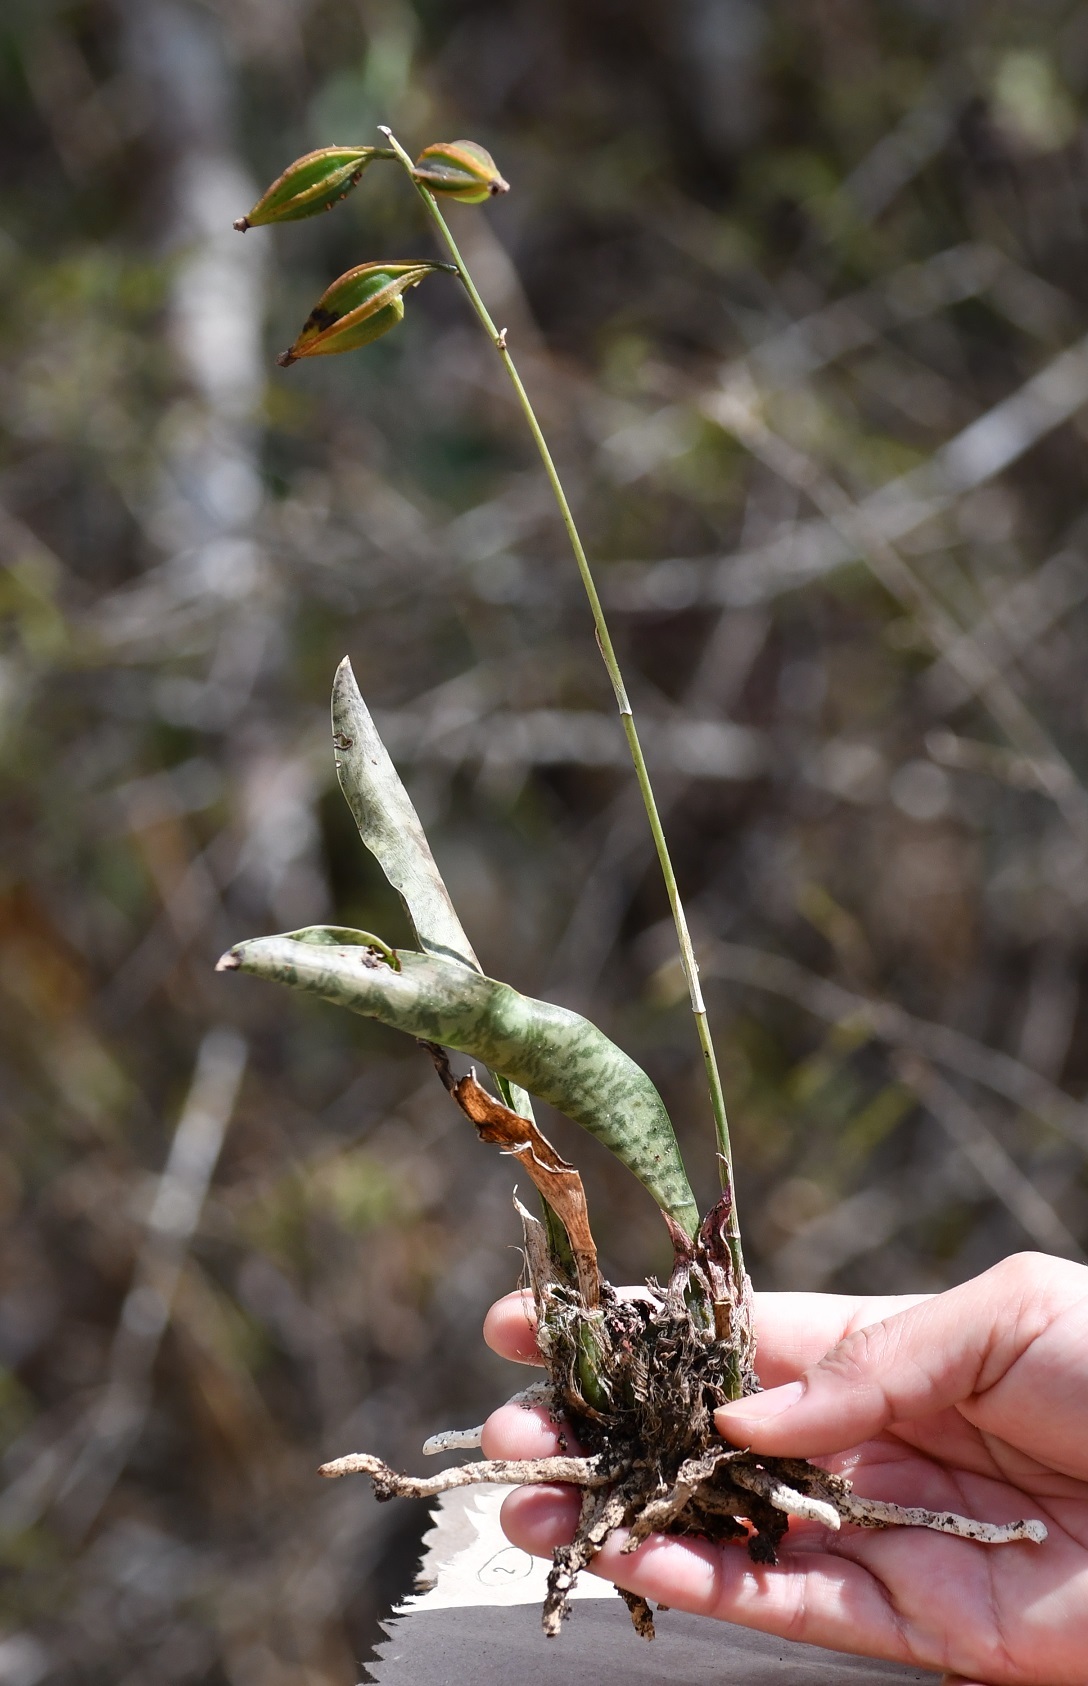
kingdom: Plantae
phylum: Tracheophyta
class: Liliopsida
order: Asparagales
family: Orchidaceae
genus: Eulophia
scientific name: Eulophia maculata
